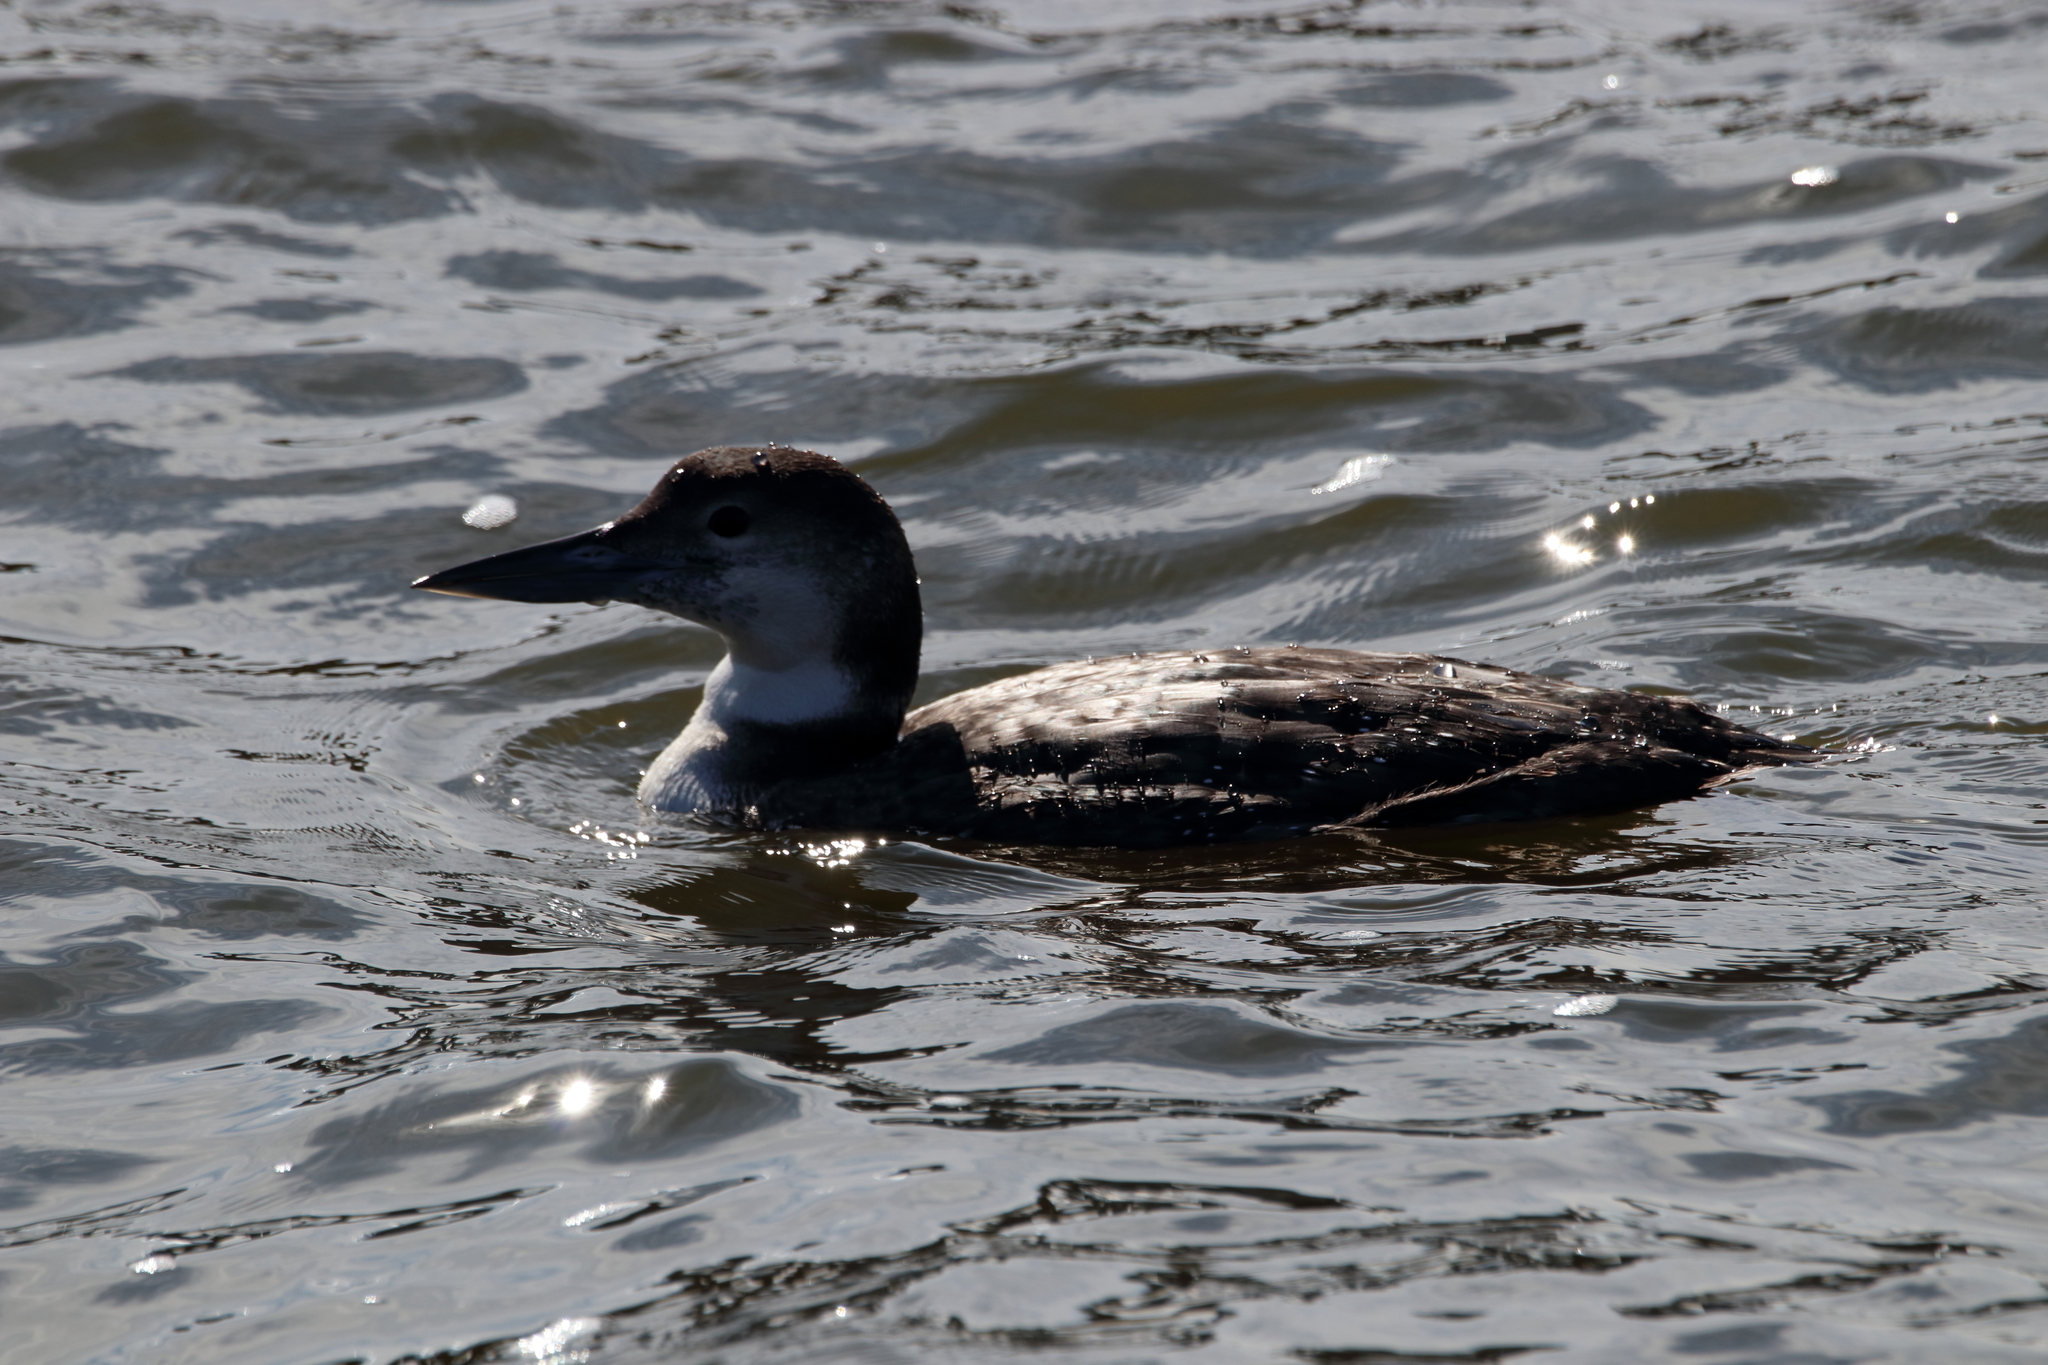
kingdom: Animalia
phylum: Chordata
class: Aves
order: Gaviiformes
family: Gaviidae
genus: Gavia
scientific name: Gavia immer
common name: Common loon
